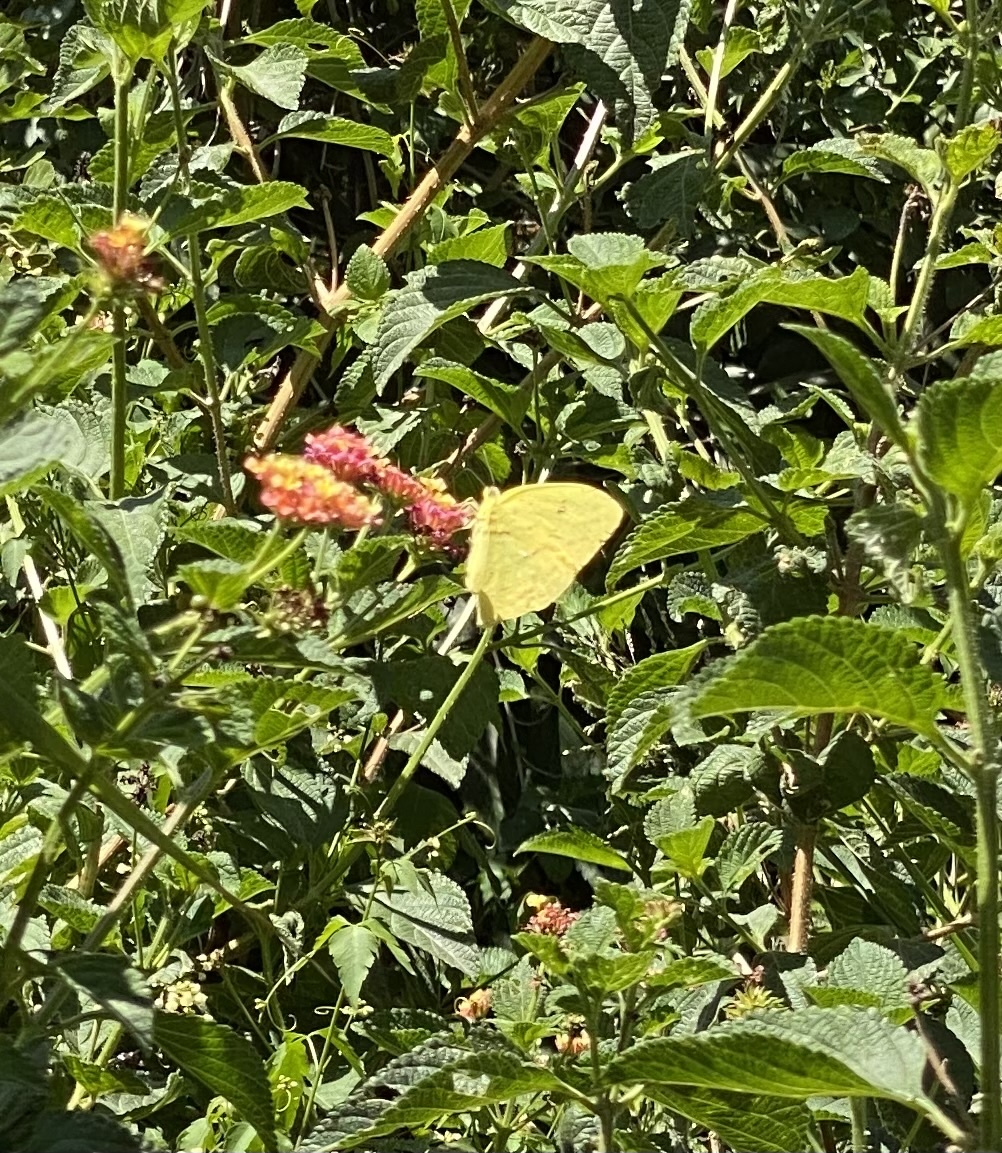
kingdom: Animalia
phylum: Arthropoda
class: Insecta
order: Lepidoptera
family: Pieridae
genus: Phoebis
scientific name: Phoebis neocypris
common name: Tailed sulphur
